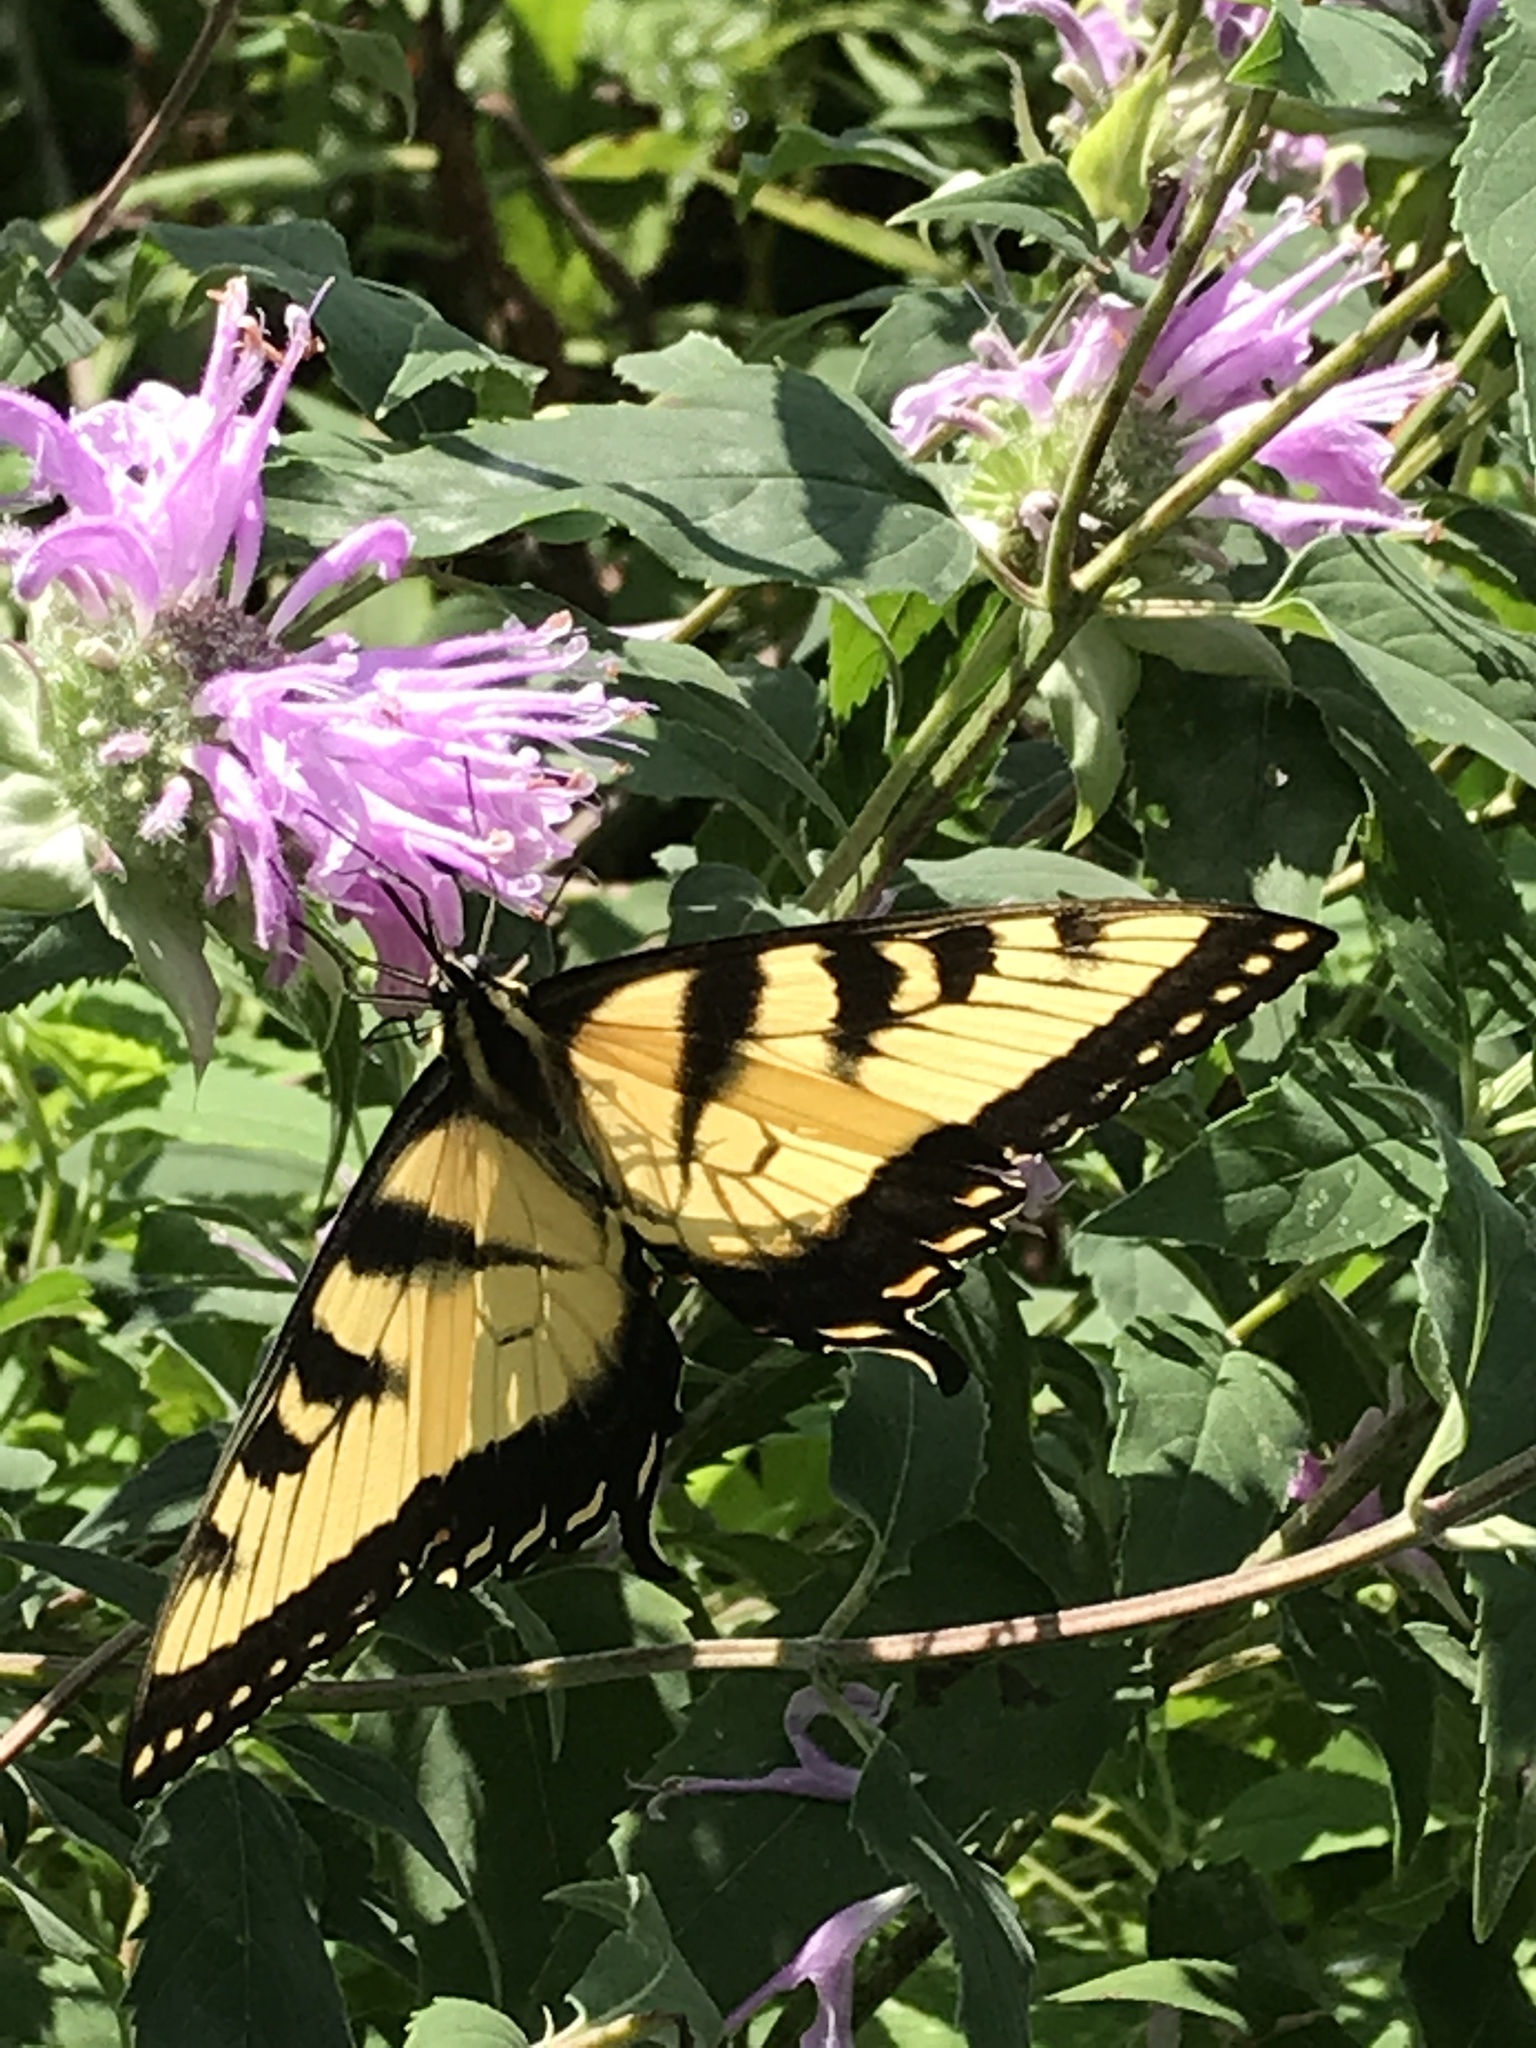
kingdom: Animalia
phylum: Arthropoda
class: Insecta
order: Lepidoptera
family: Papilionidae
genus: Papilio
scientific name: Papilio glaucus
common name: Tiger swallowtail
